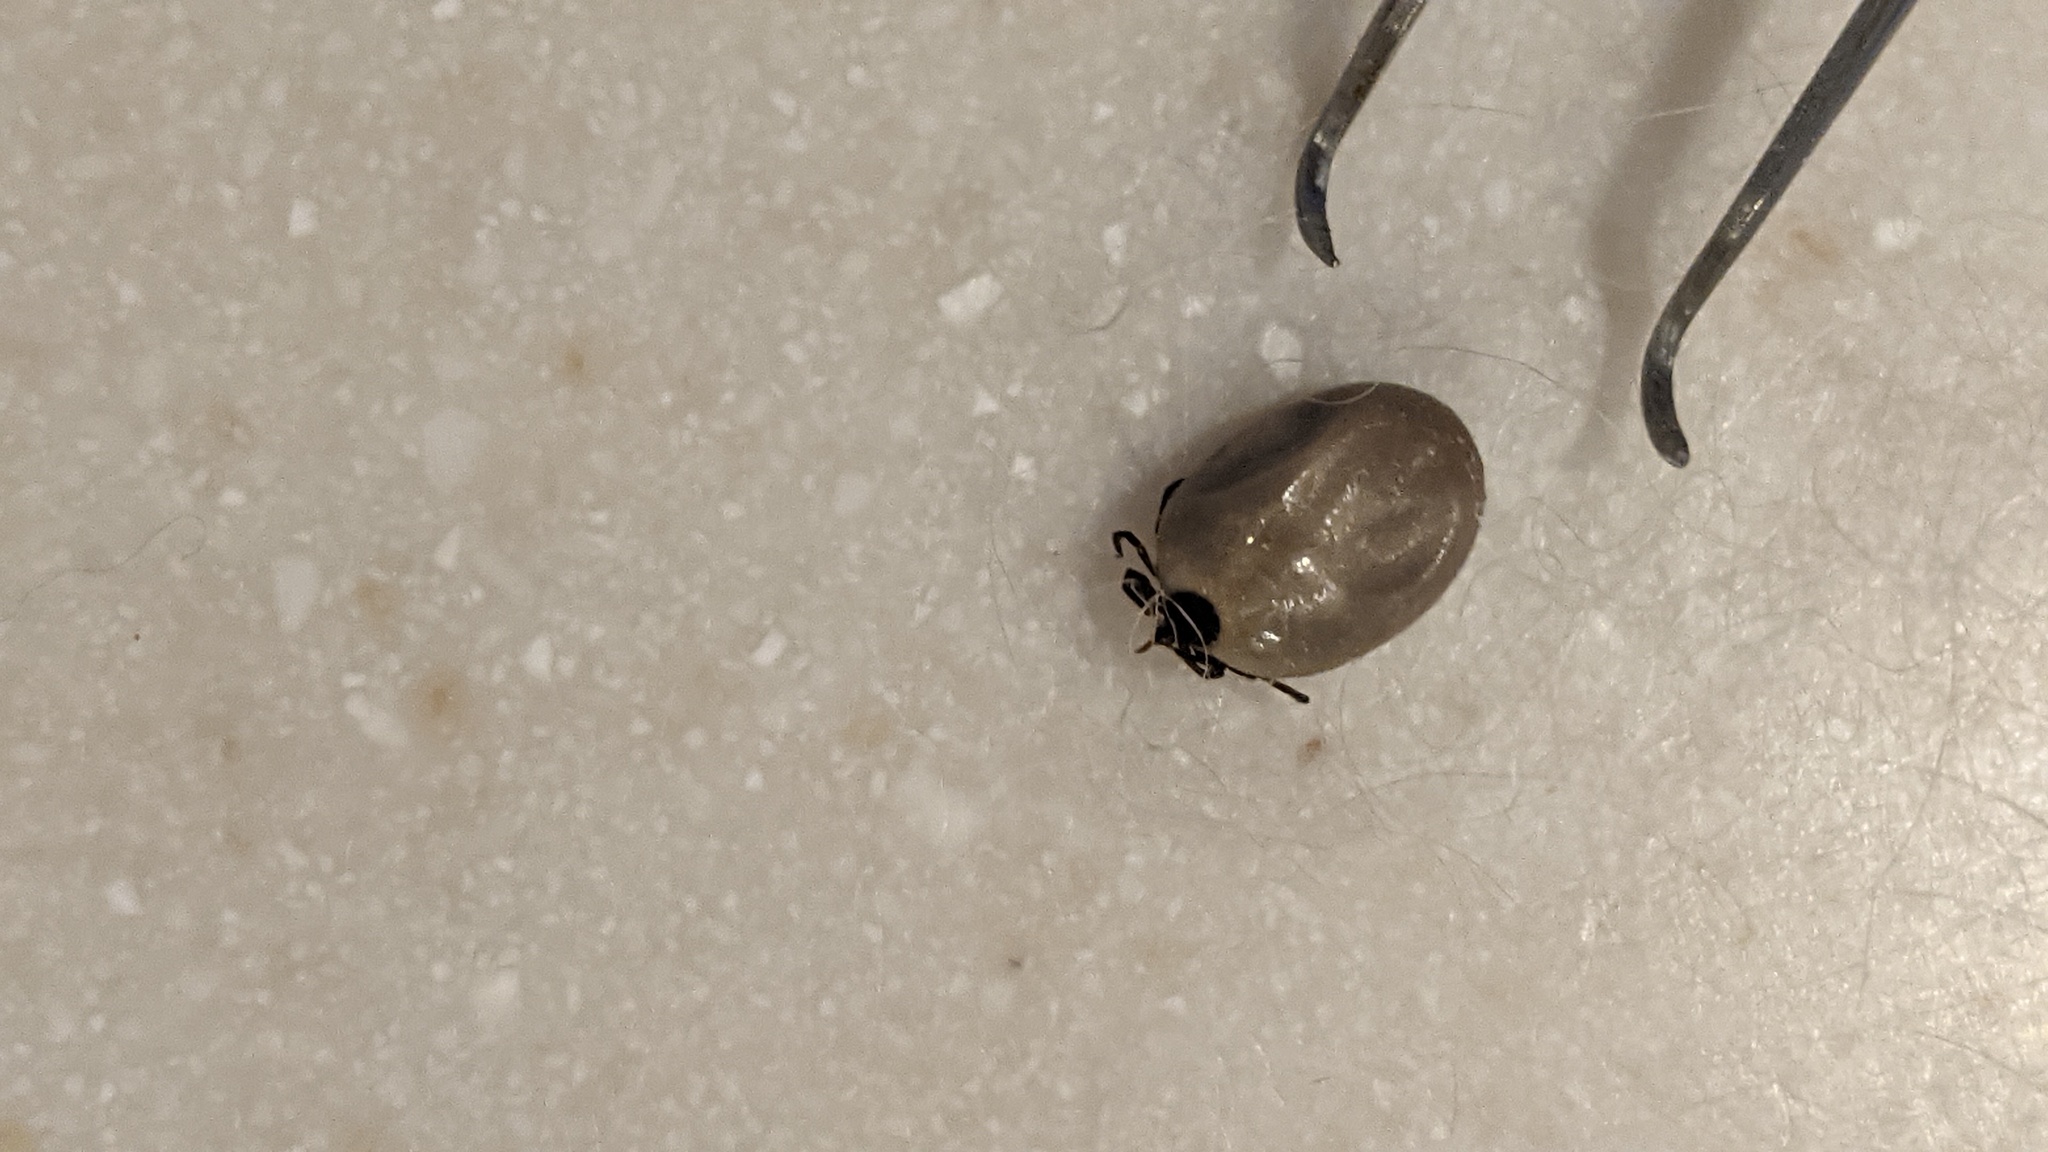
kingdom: Animalia
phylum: Arthropoda
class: Arachnida
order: Ixodida
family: Ixodidae
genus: Ixodes
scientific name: Ixodes scapularis
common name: Black legged tick
